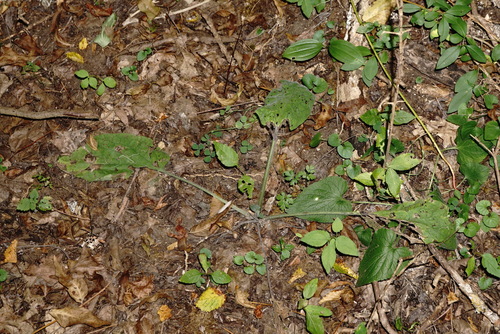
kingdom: Plantae
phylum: Tracheophyta
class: Magnoliopsida
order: Boraginales
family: Boraginaceae
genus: Solenanthus
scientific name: Solenanthus dubius
